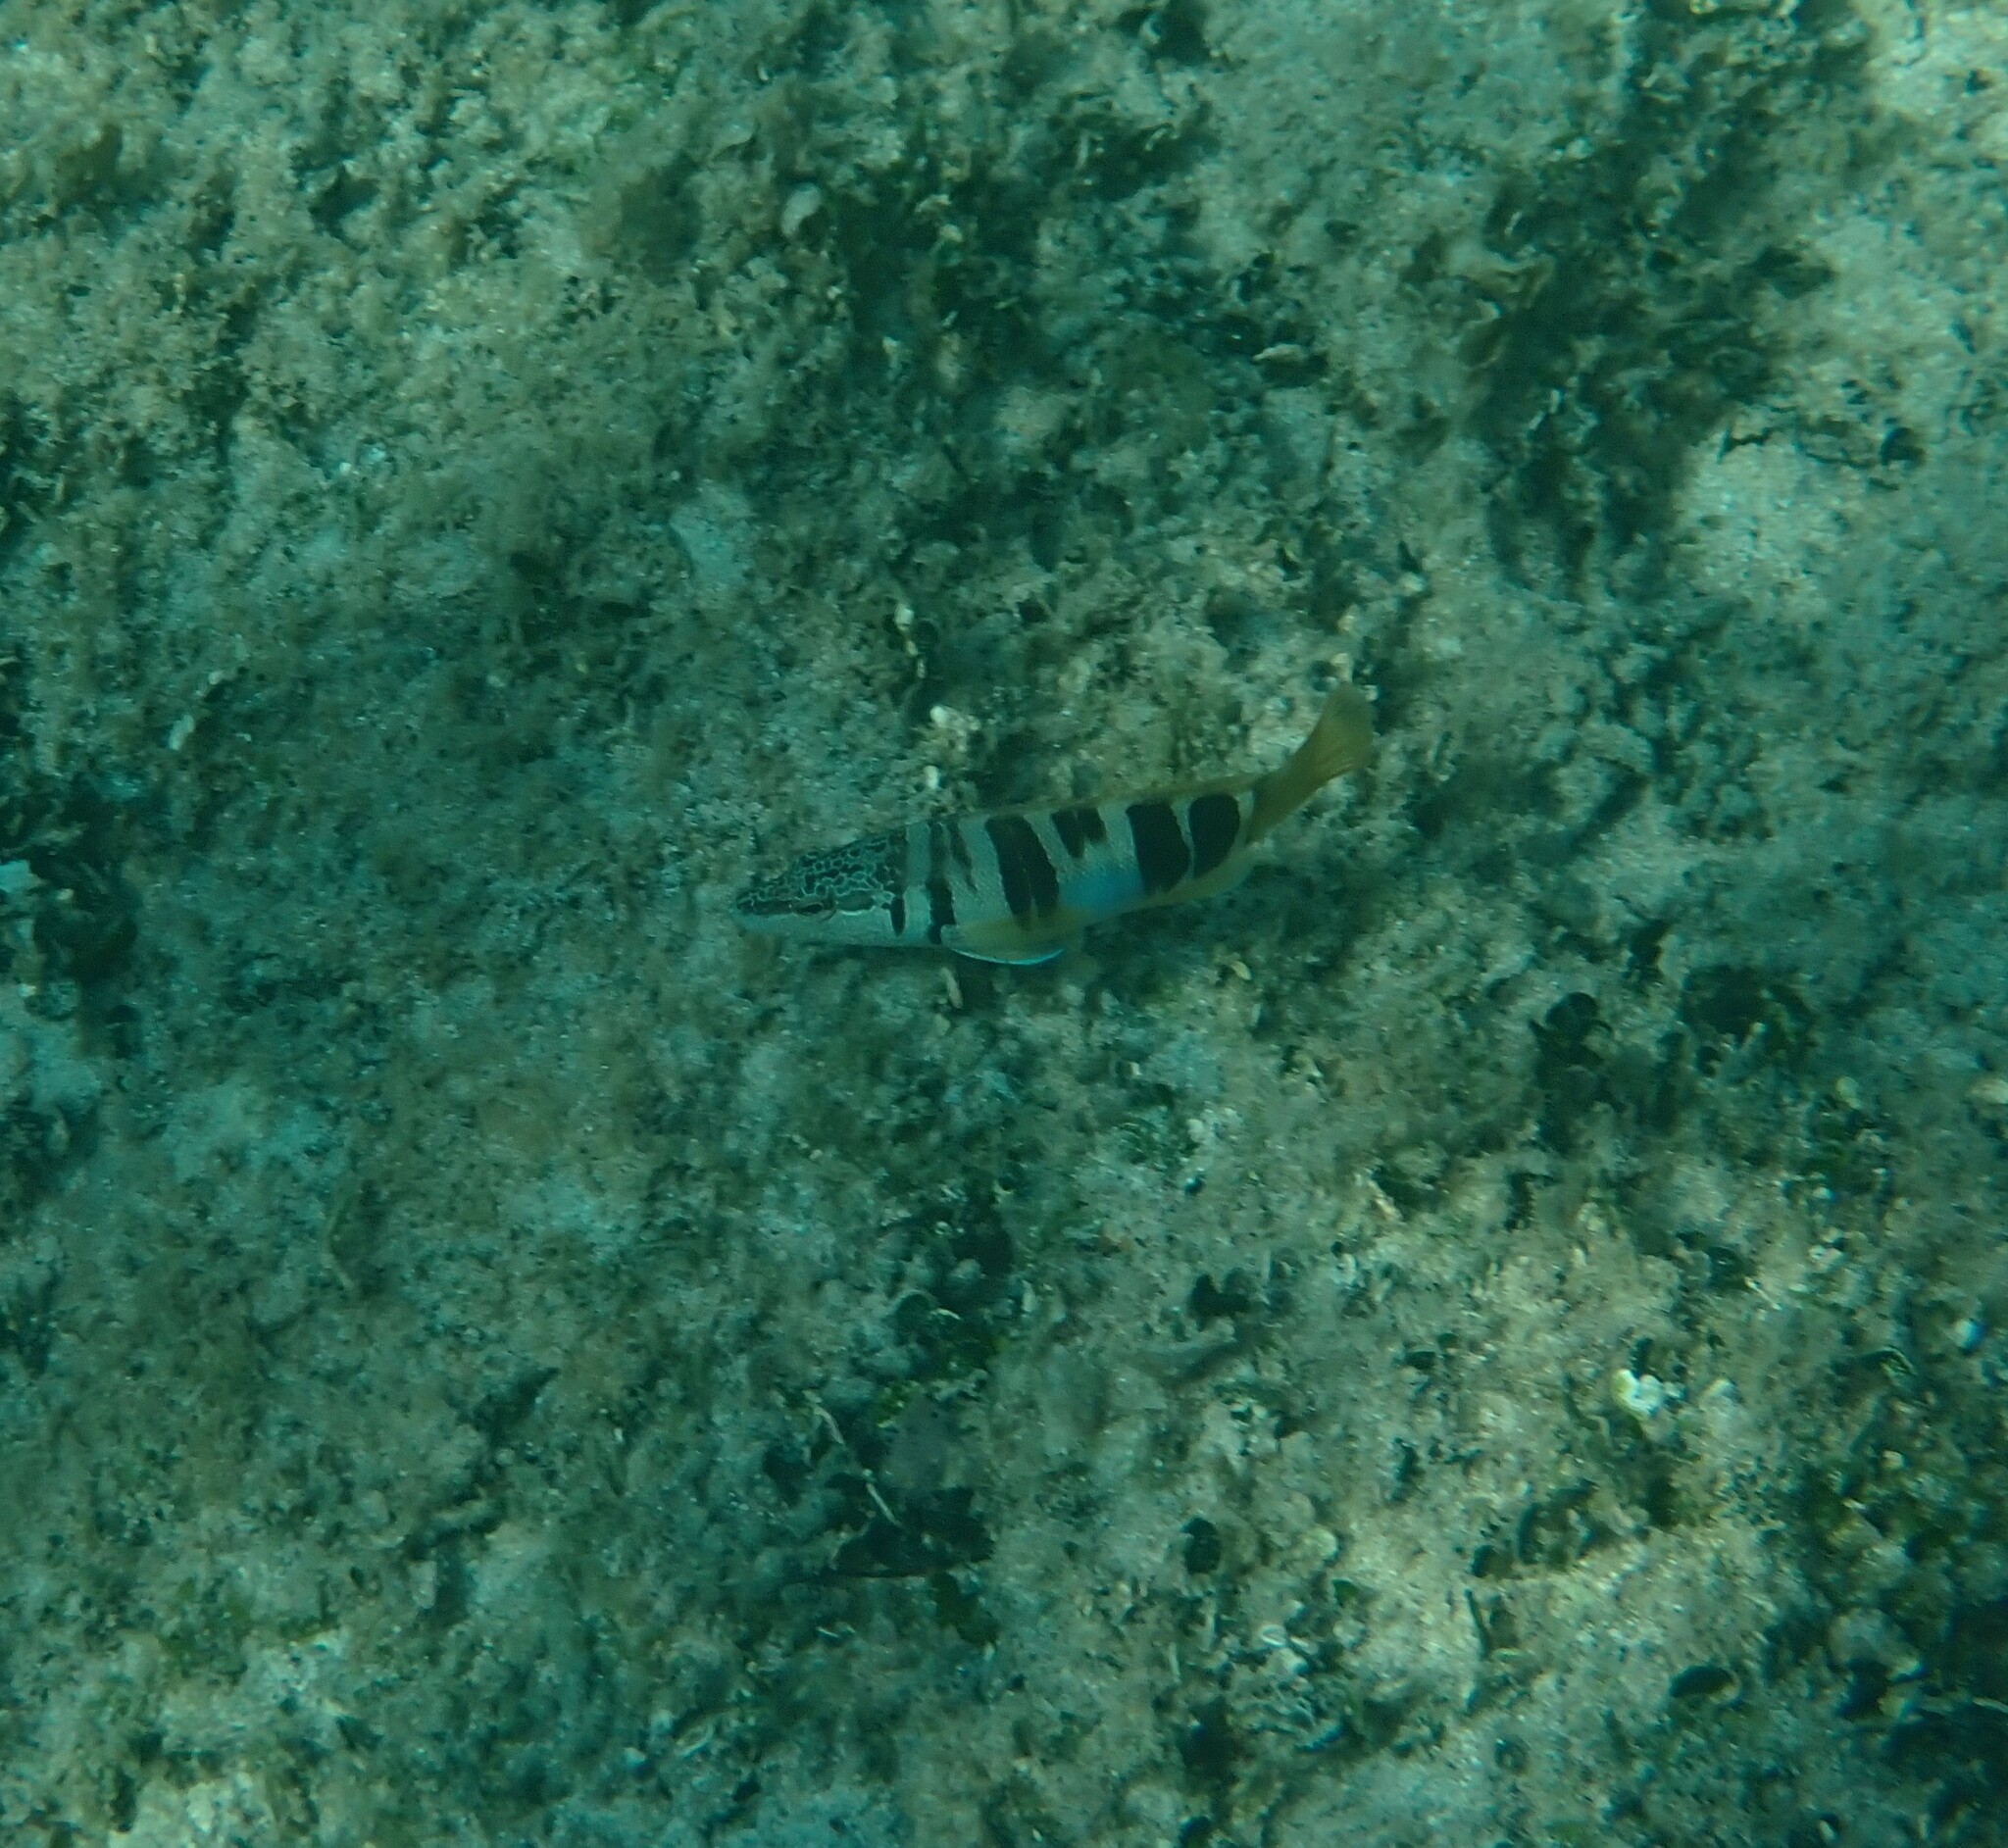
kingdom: Animalia
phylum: Chordata
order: Perciformes
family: Serranidae
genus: Serranus
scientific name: Serranus scriba
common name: Painted comber
